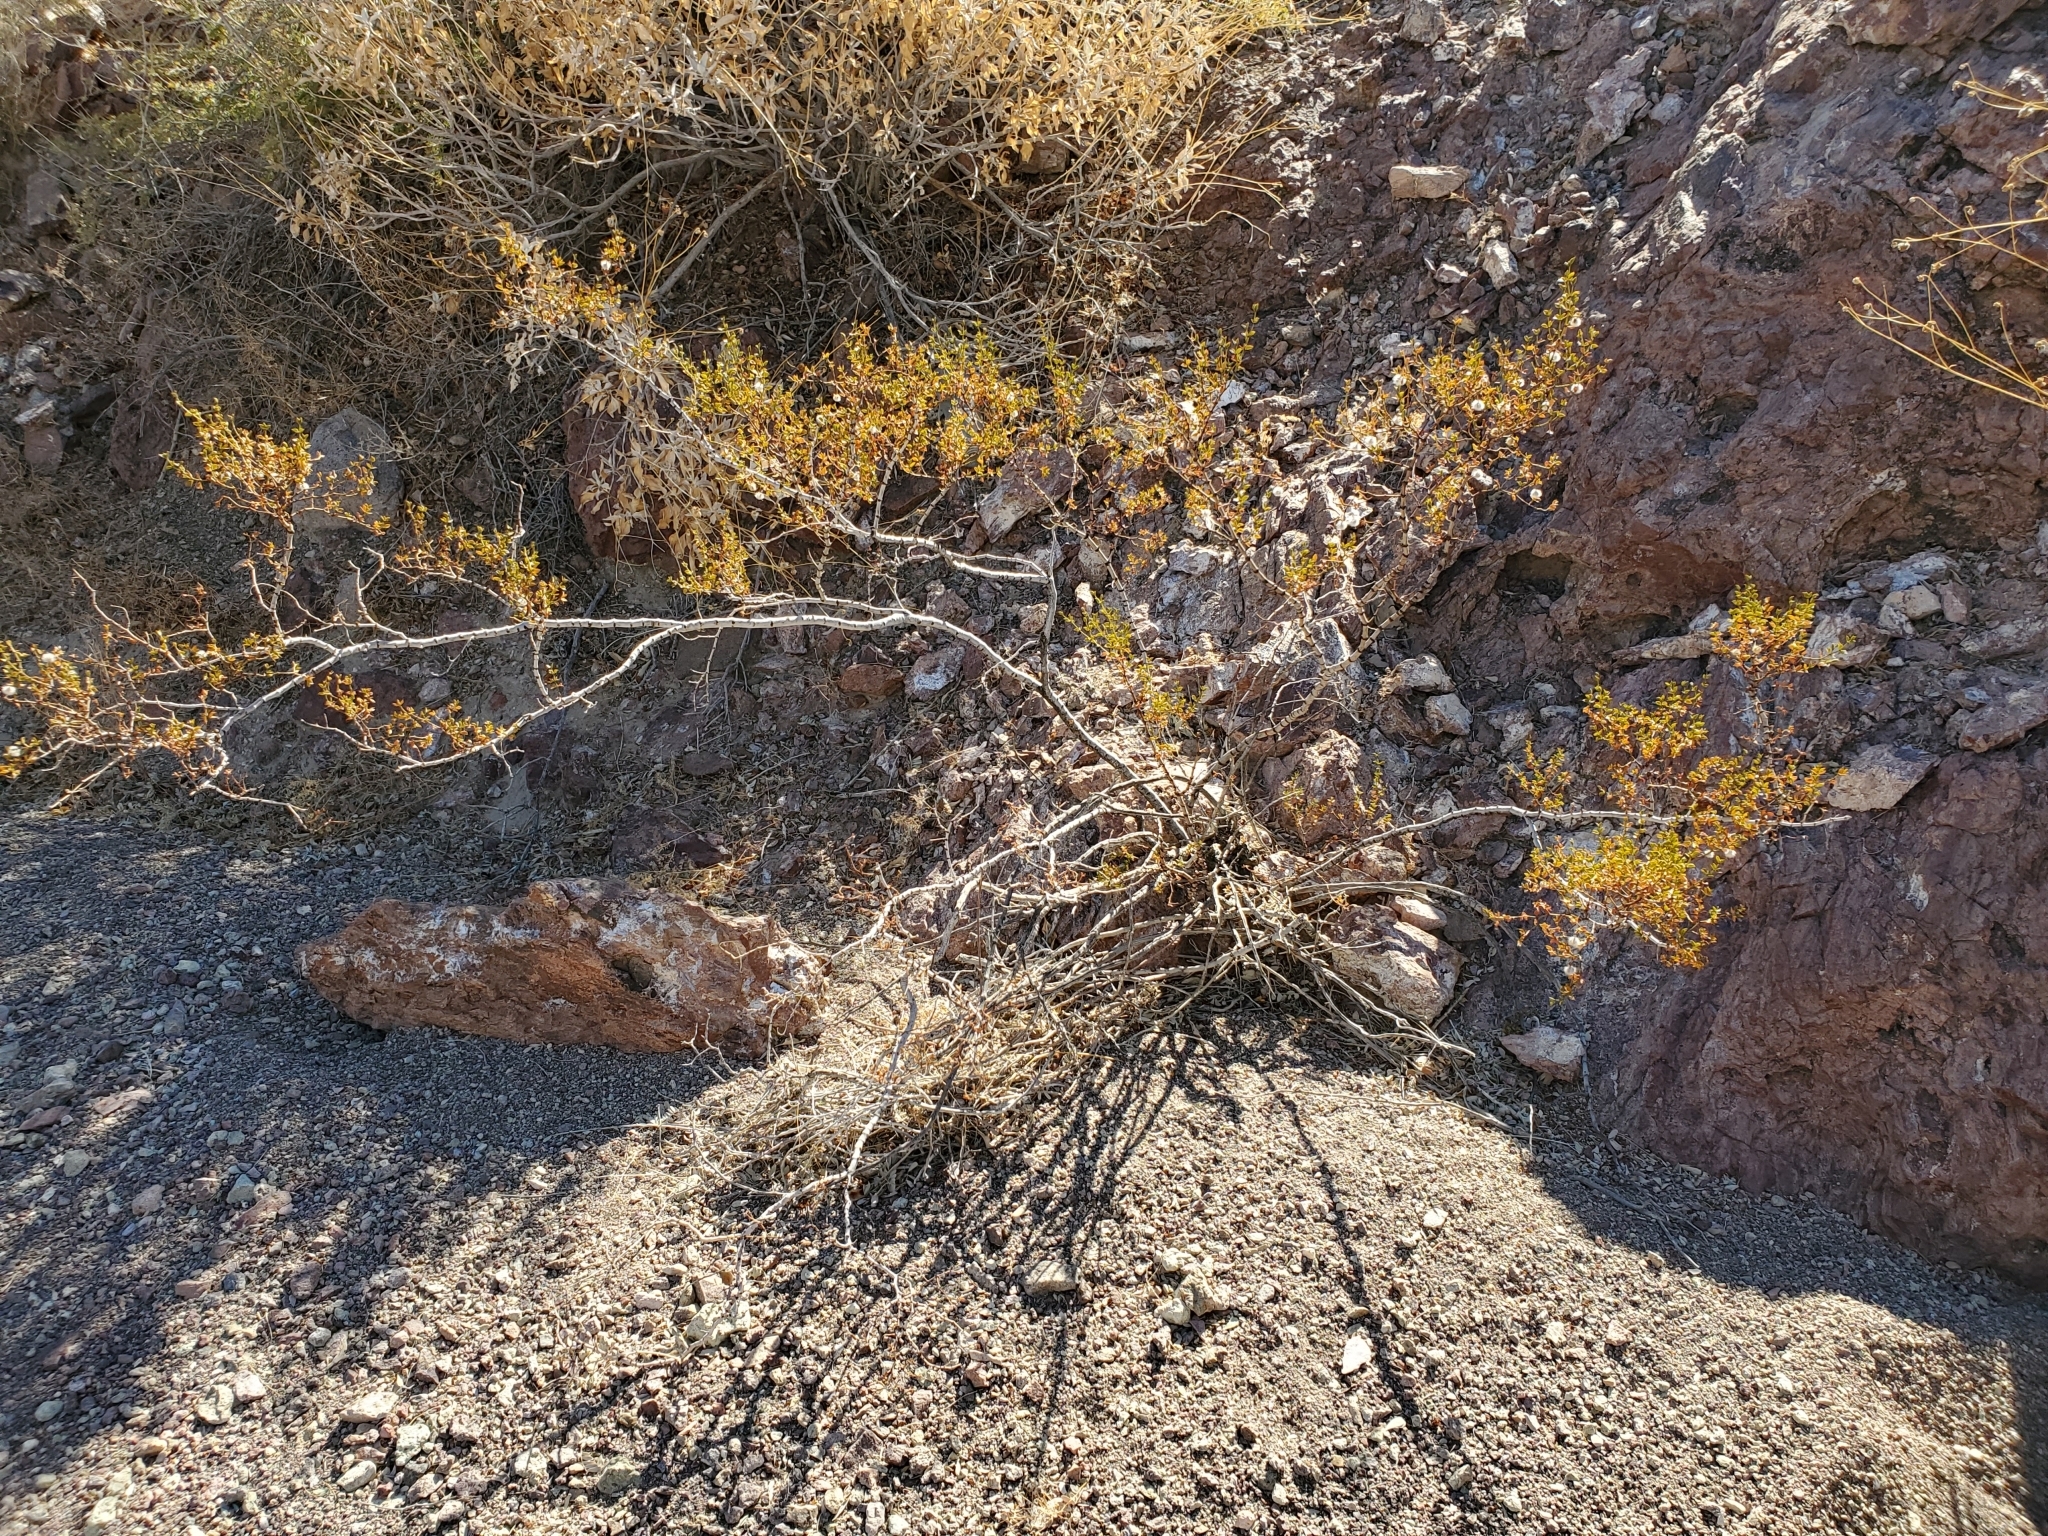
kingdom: Plantae
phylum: Tracheophyta
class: Magnoliopsida
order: Zygophyllales
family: Zygophyllaceae
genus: Larrea
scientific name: Larrea tridentata
